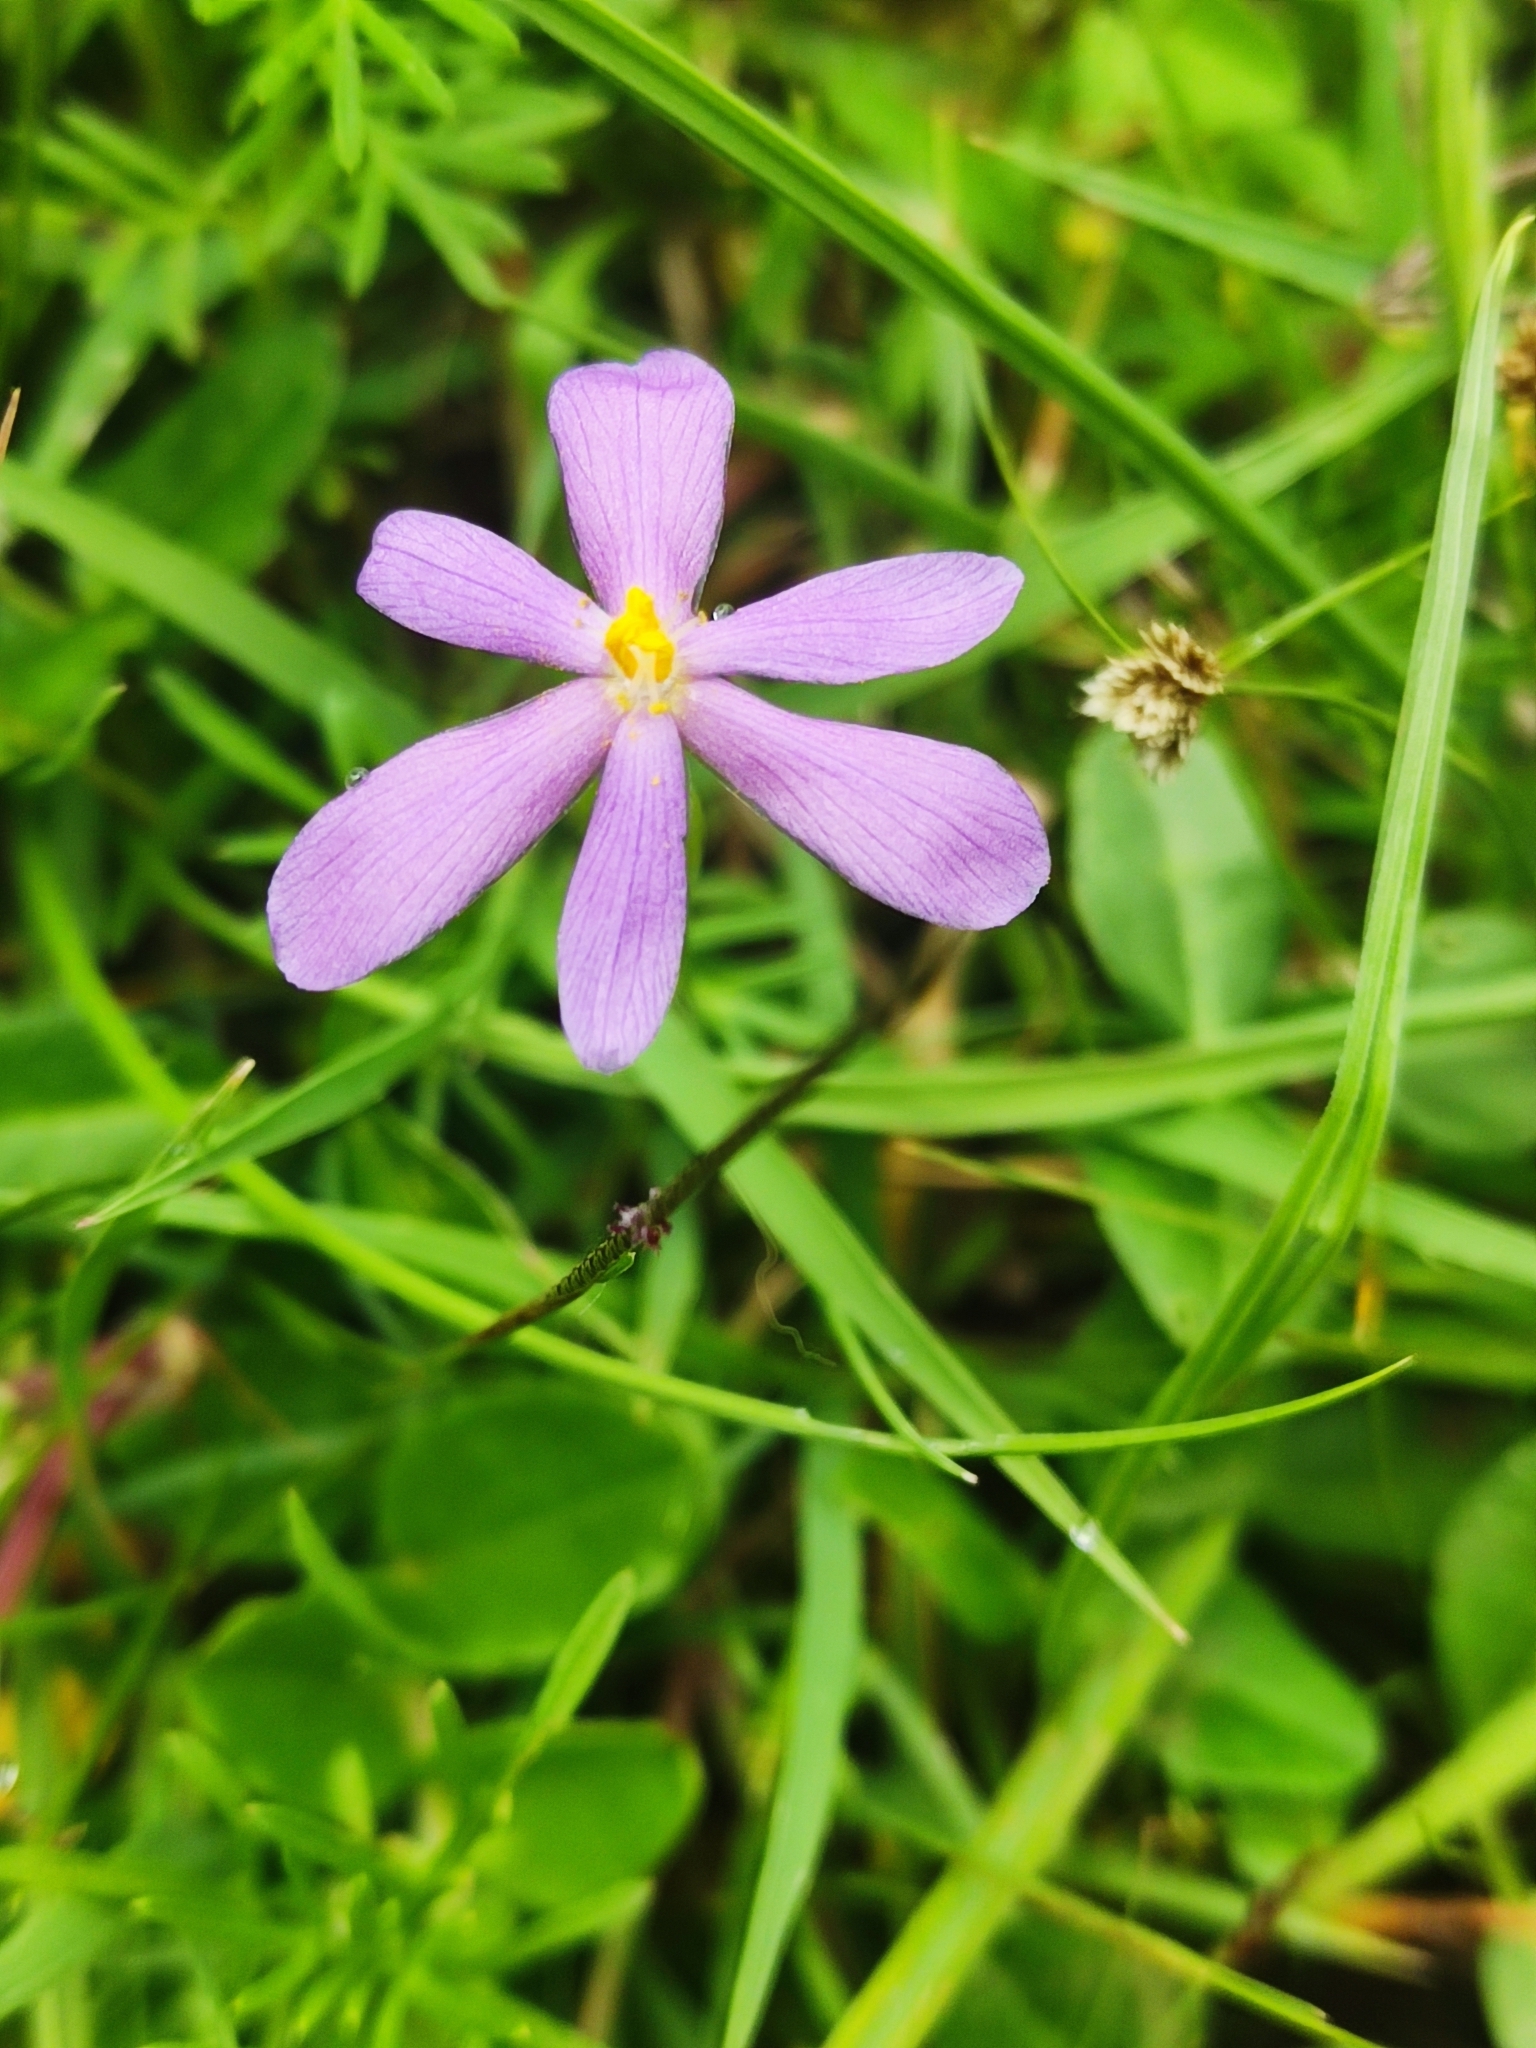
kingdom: Plantae
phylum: Tracheophyta
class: Liliopsida
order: Asparagales
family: Iridaceae
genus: Nemastylis
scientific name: Nemastylis tenuis
